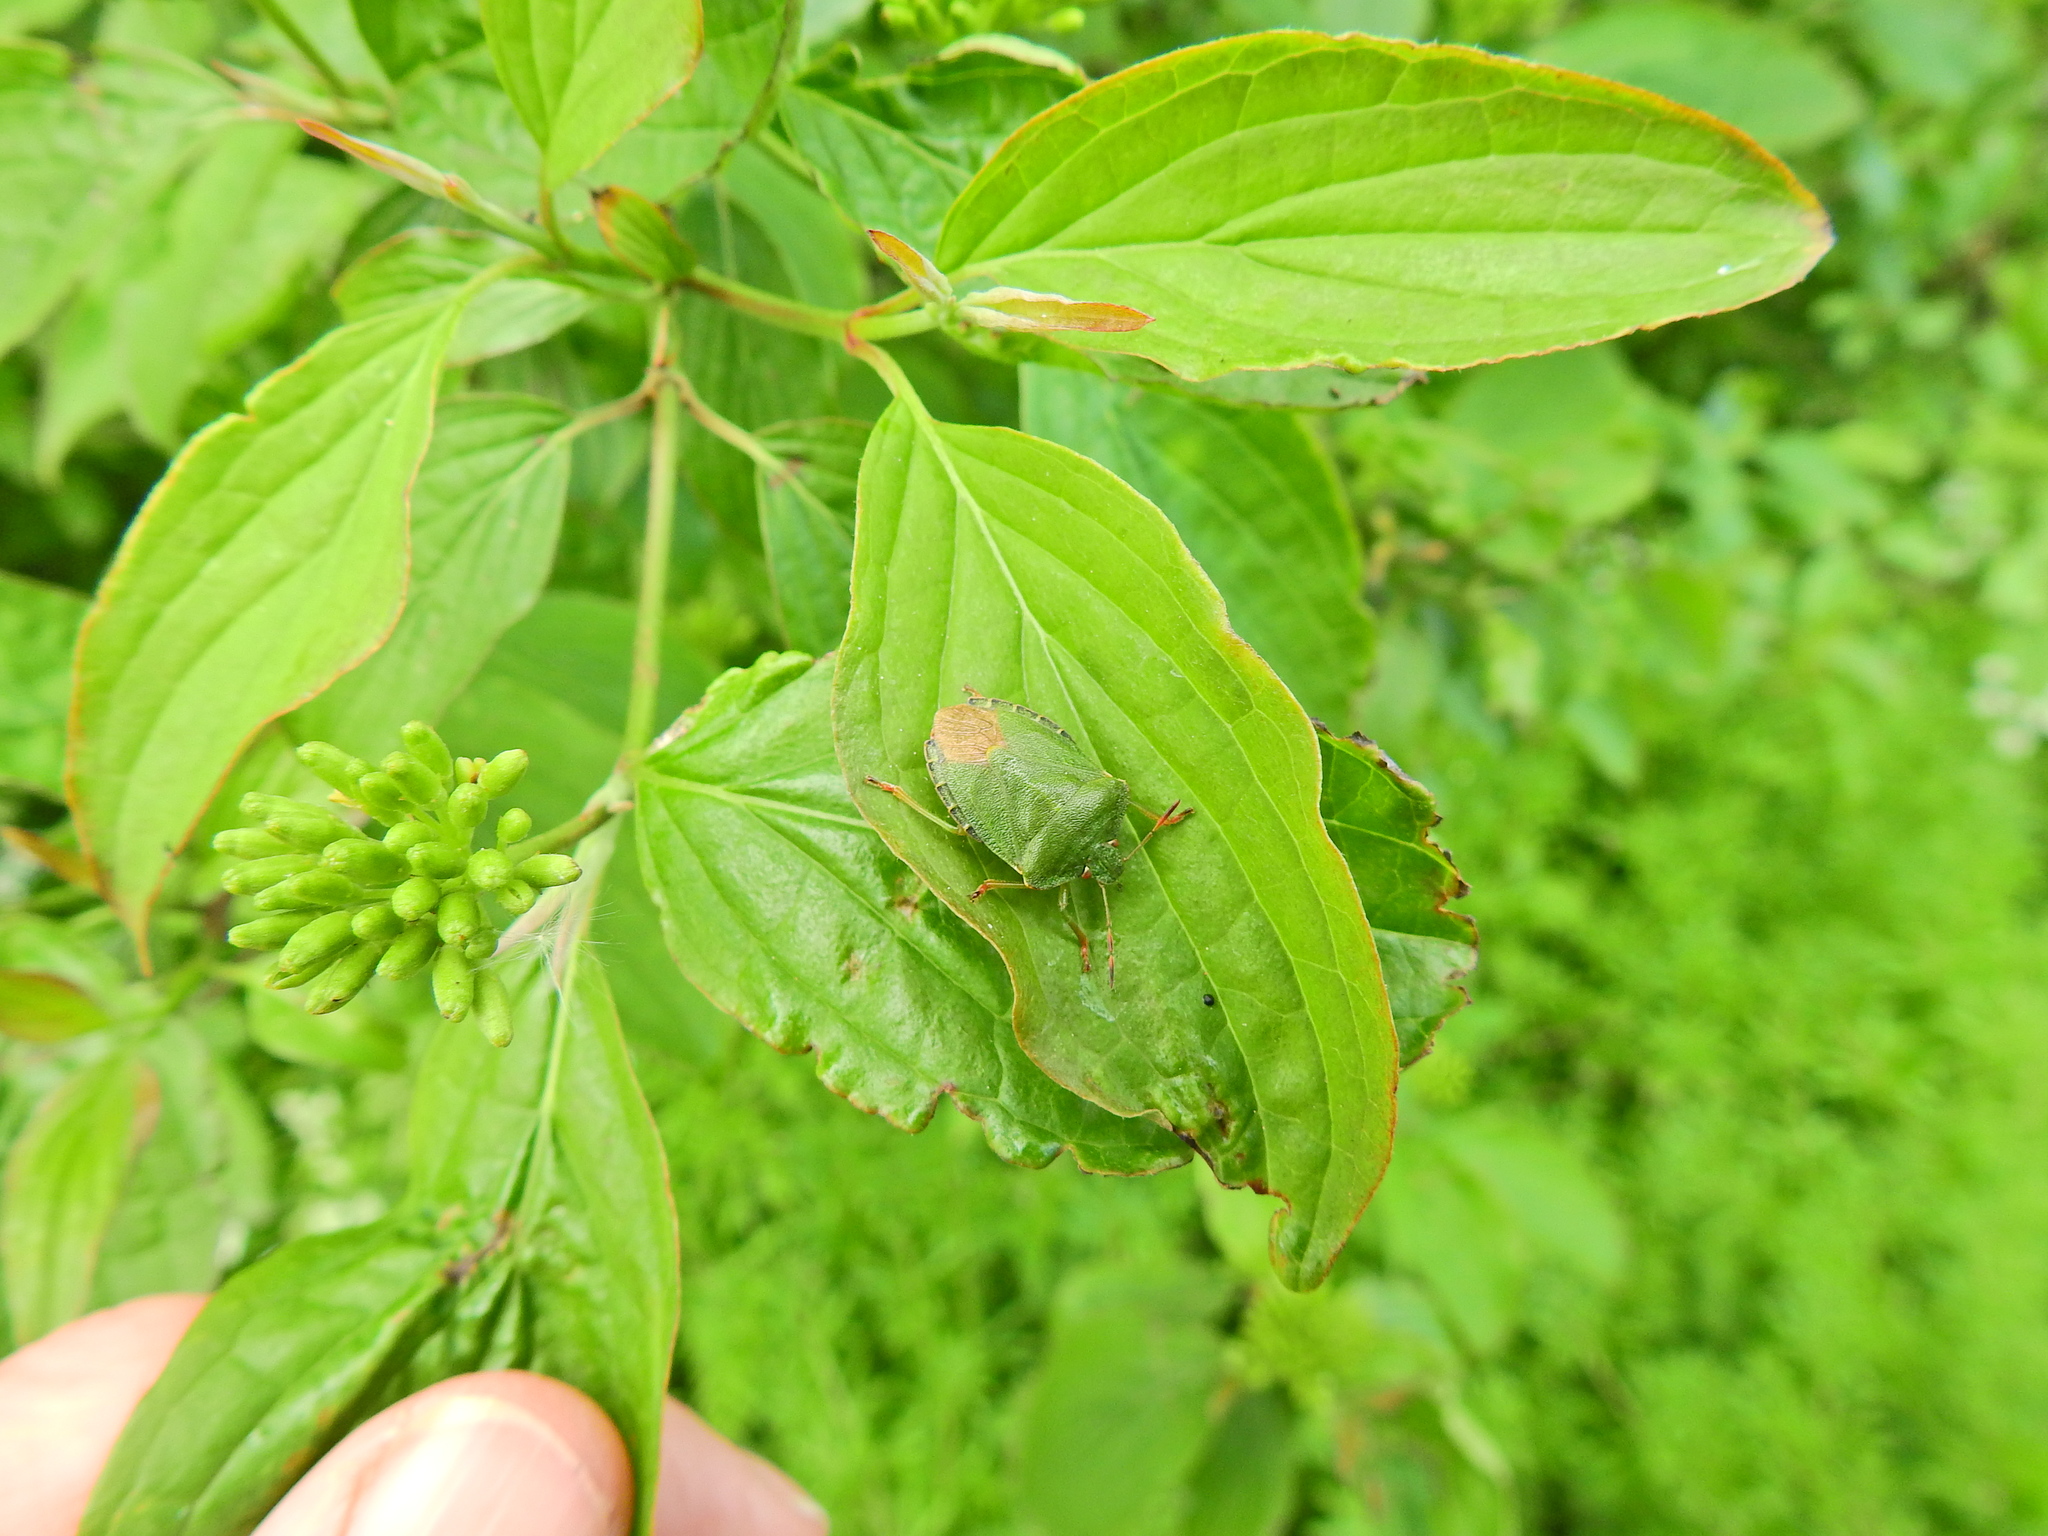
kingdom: Animalia
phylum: Arthropoda
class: Insecta
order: Hemiptera
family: Pentatomidae
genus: Palomena
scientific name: Palomena prasina
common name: Green shieldbug
